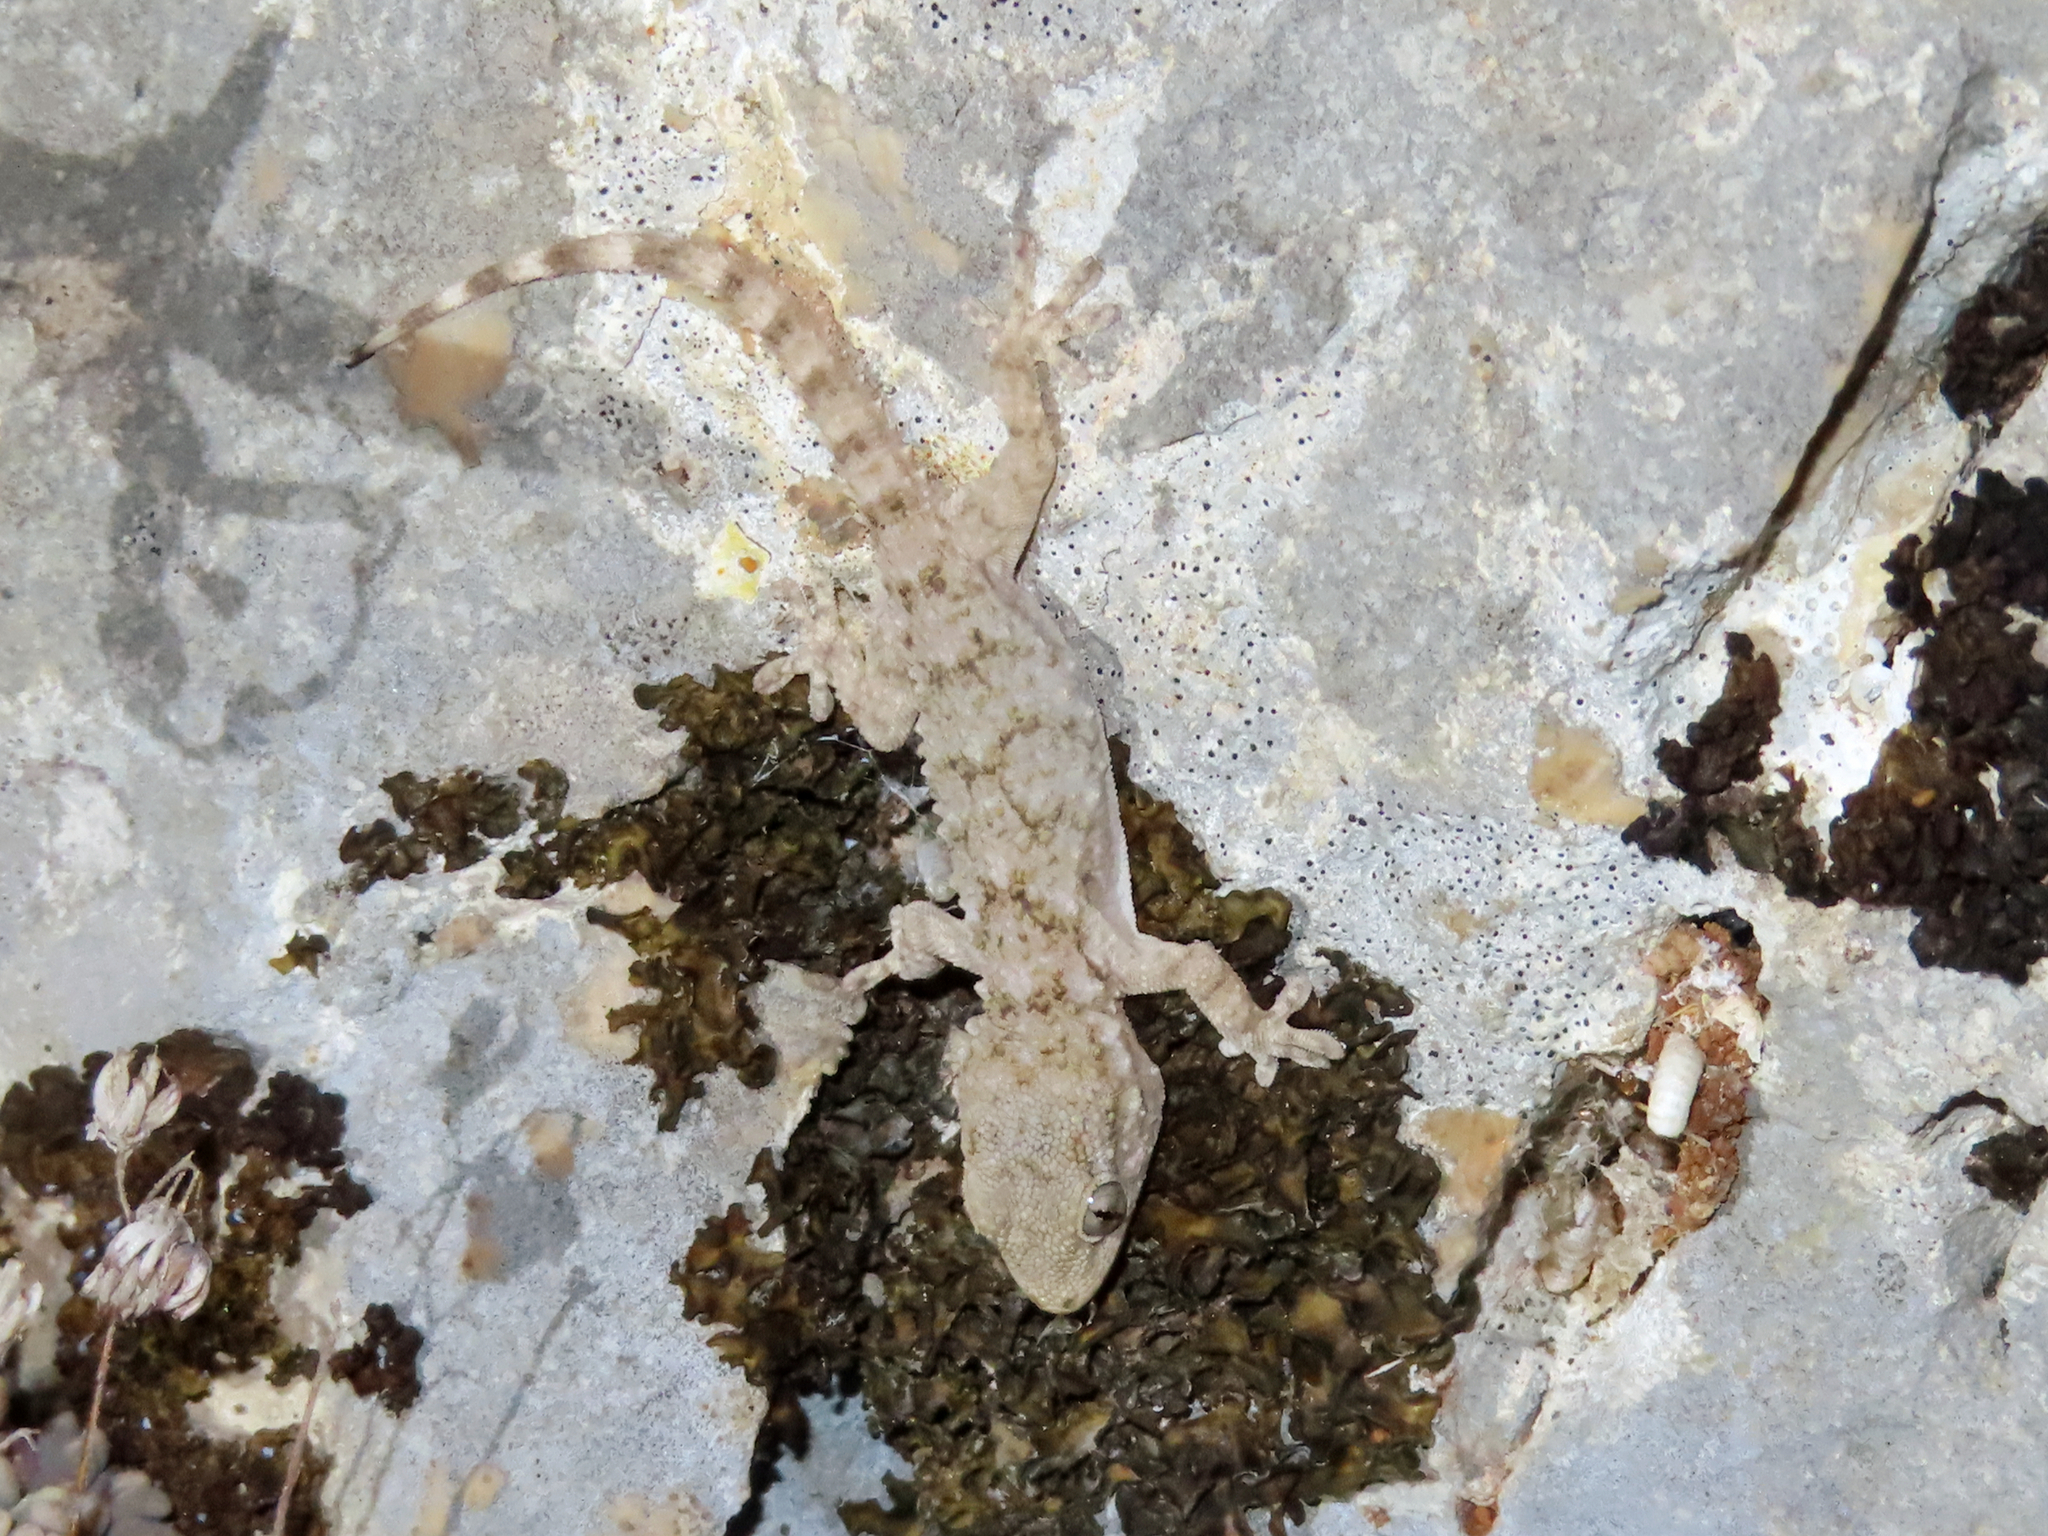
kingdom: Animalia
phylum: Chordata
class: Squamata
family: Phyllodactylidae
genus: Tarentola
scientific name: Tarentola mauritanica
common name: Moorish gecko
